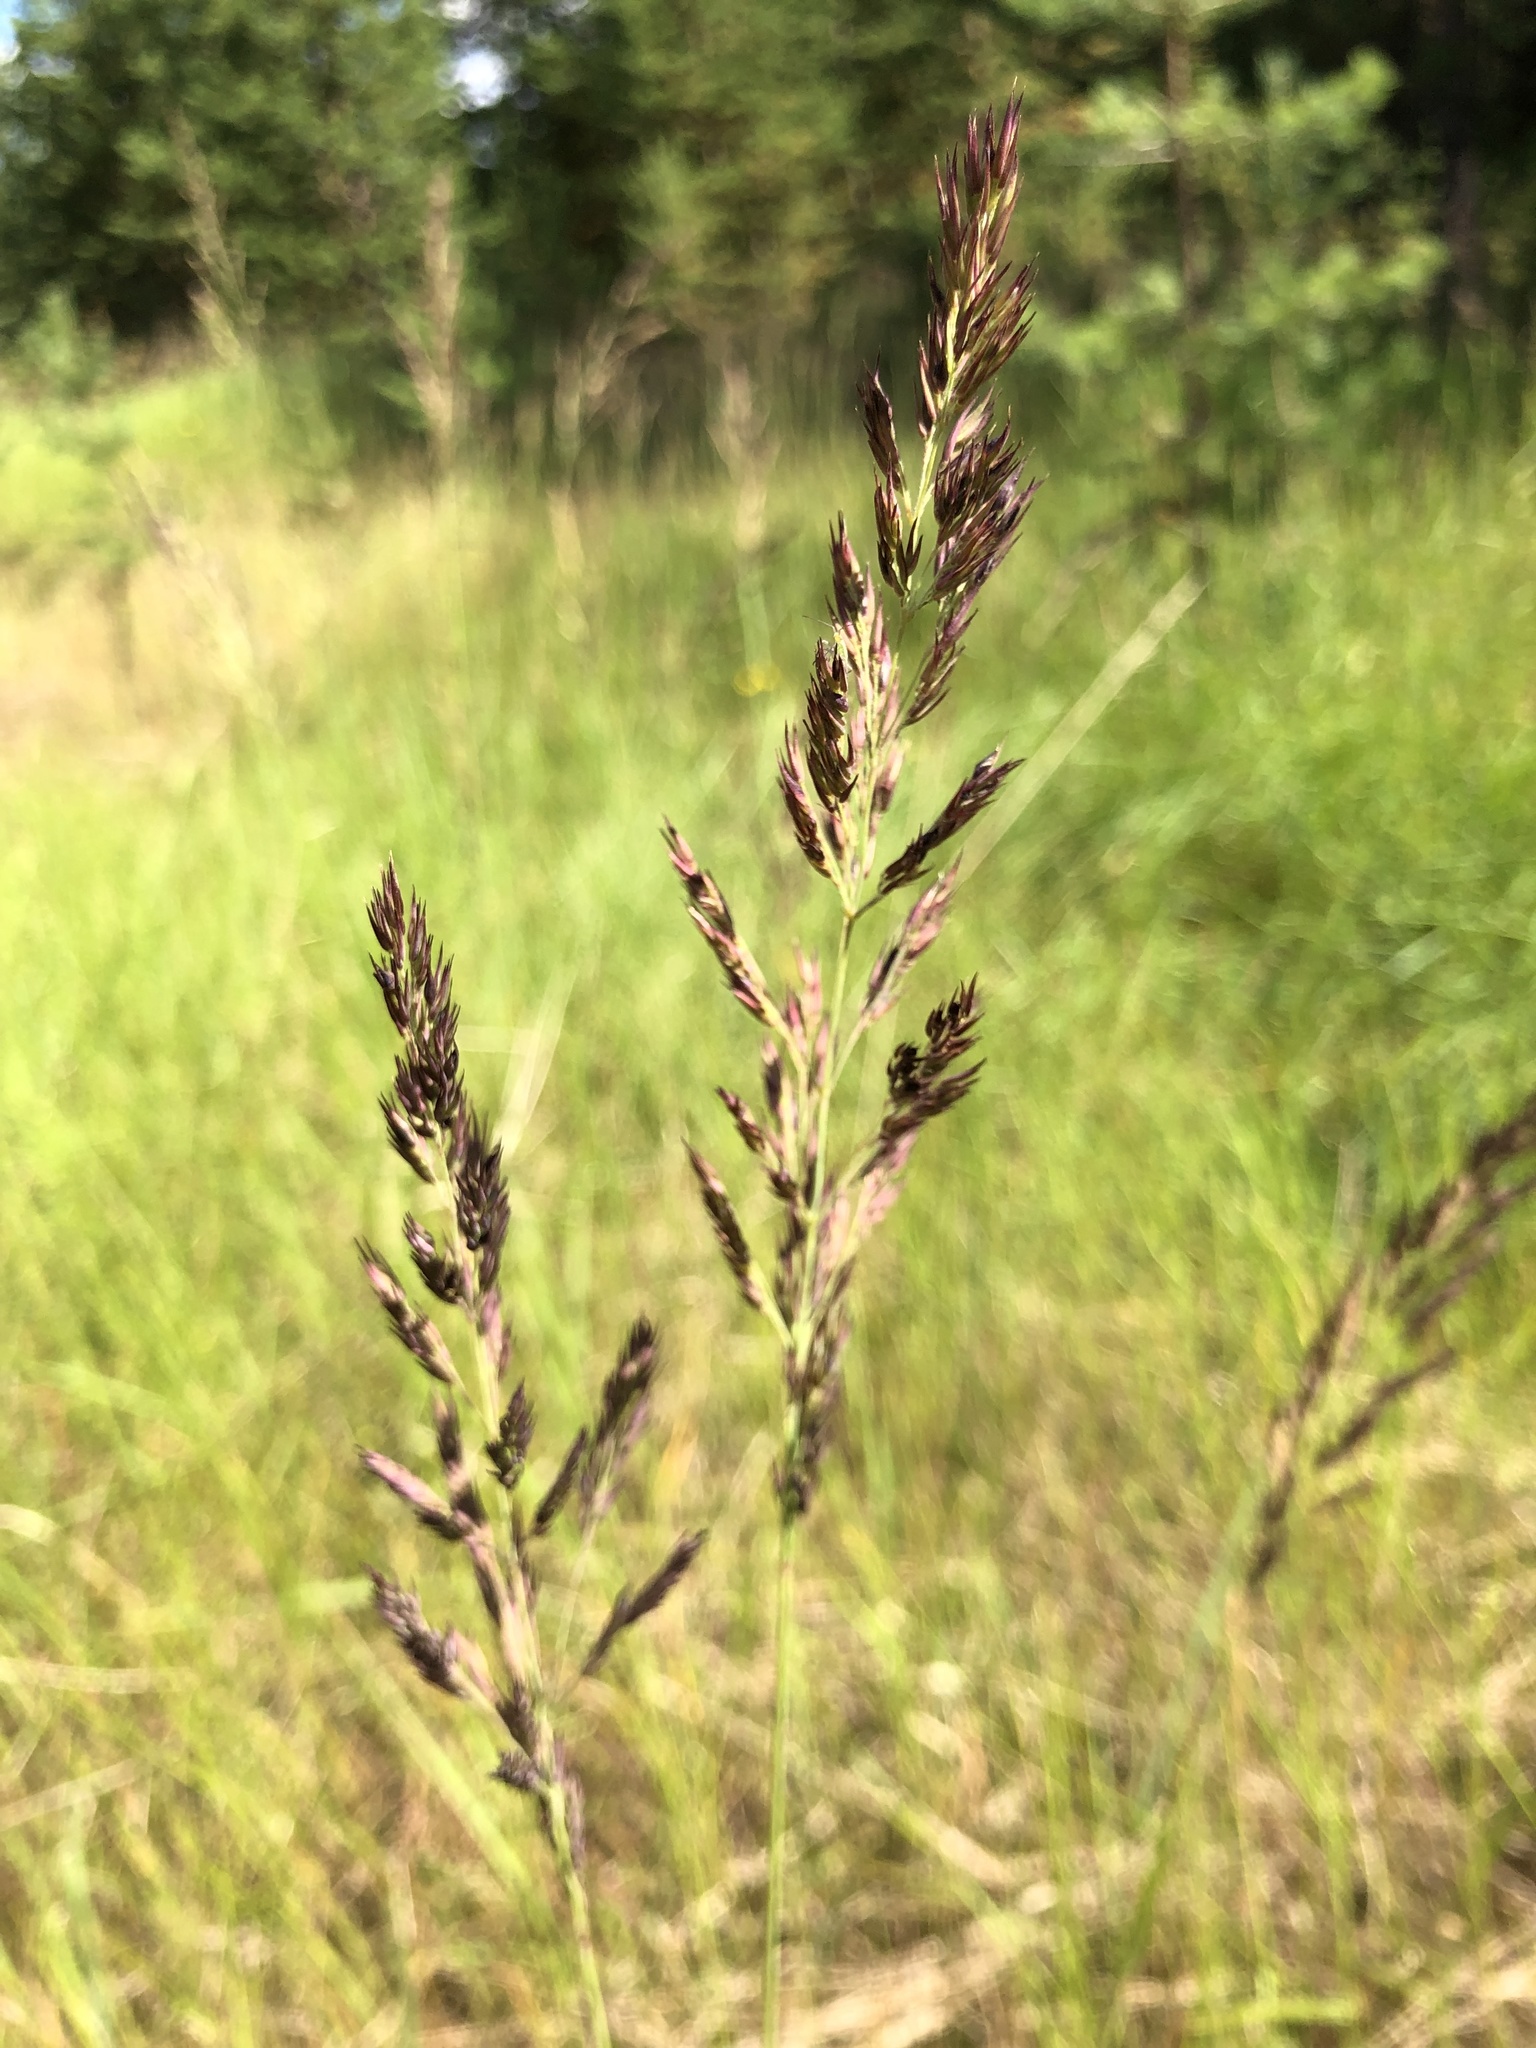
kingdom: Plantae
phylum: Tracheophyta
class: Liliopsida
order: Poales
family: Poaceae
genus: Calamagrostis
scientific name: Calamagrostis epigejos
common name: Wood small-reed
